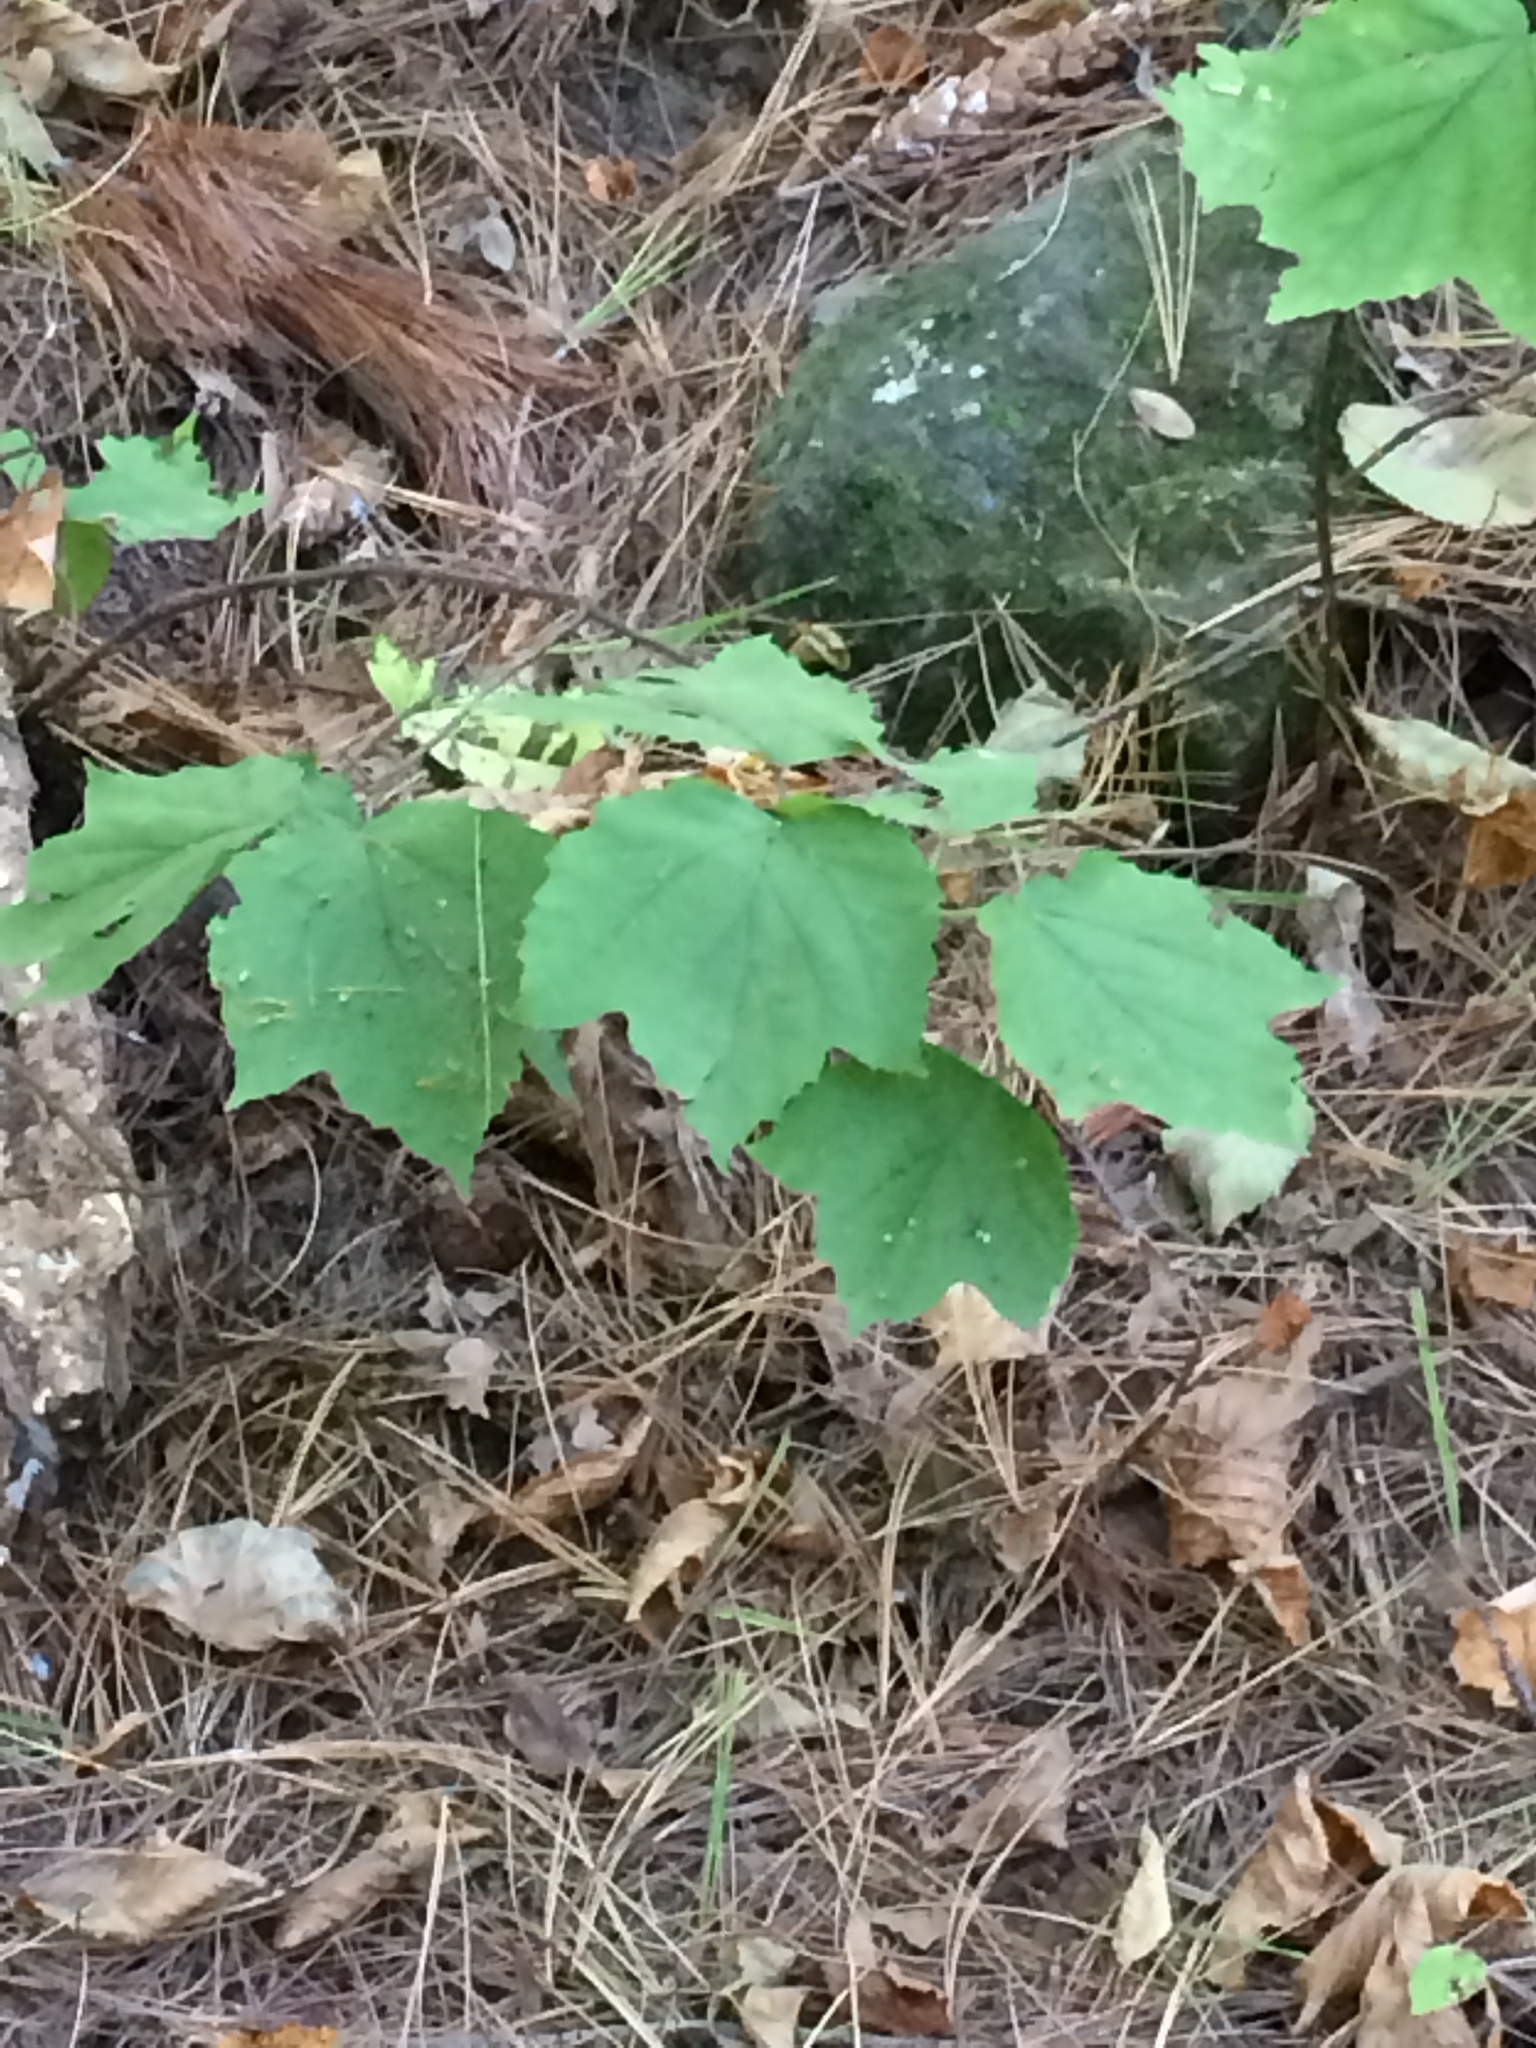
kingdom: Plantae
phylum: Tracheophyta
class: Magnoliopsida
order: Dipsacales
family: Viburnaceae
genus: Viburnum
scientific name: Viburnum acerifolium
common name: Dockmackie
